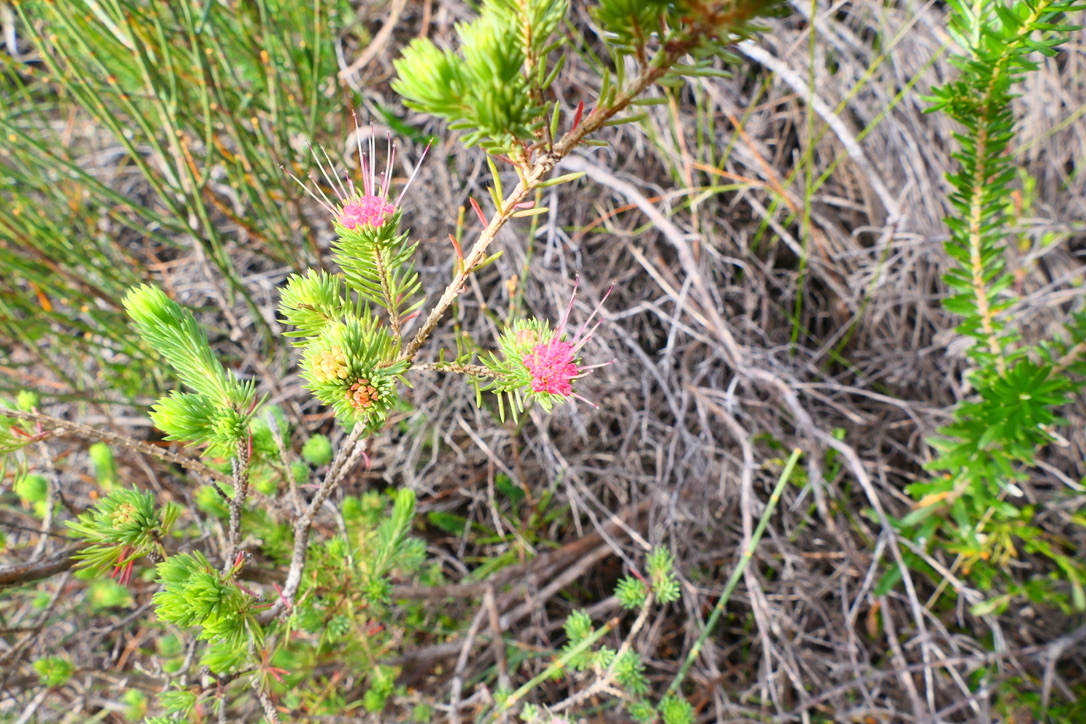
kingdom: Plantae
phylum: Tracheophyta
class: Magnoliopsida
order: Myrtales
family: Myrtaceae
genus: Darwinia
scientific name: Darwinia fascicularis
